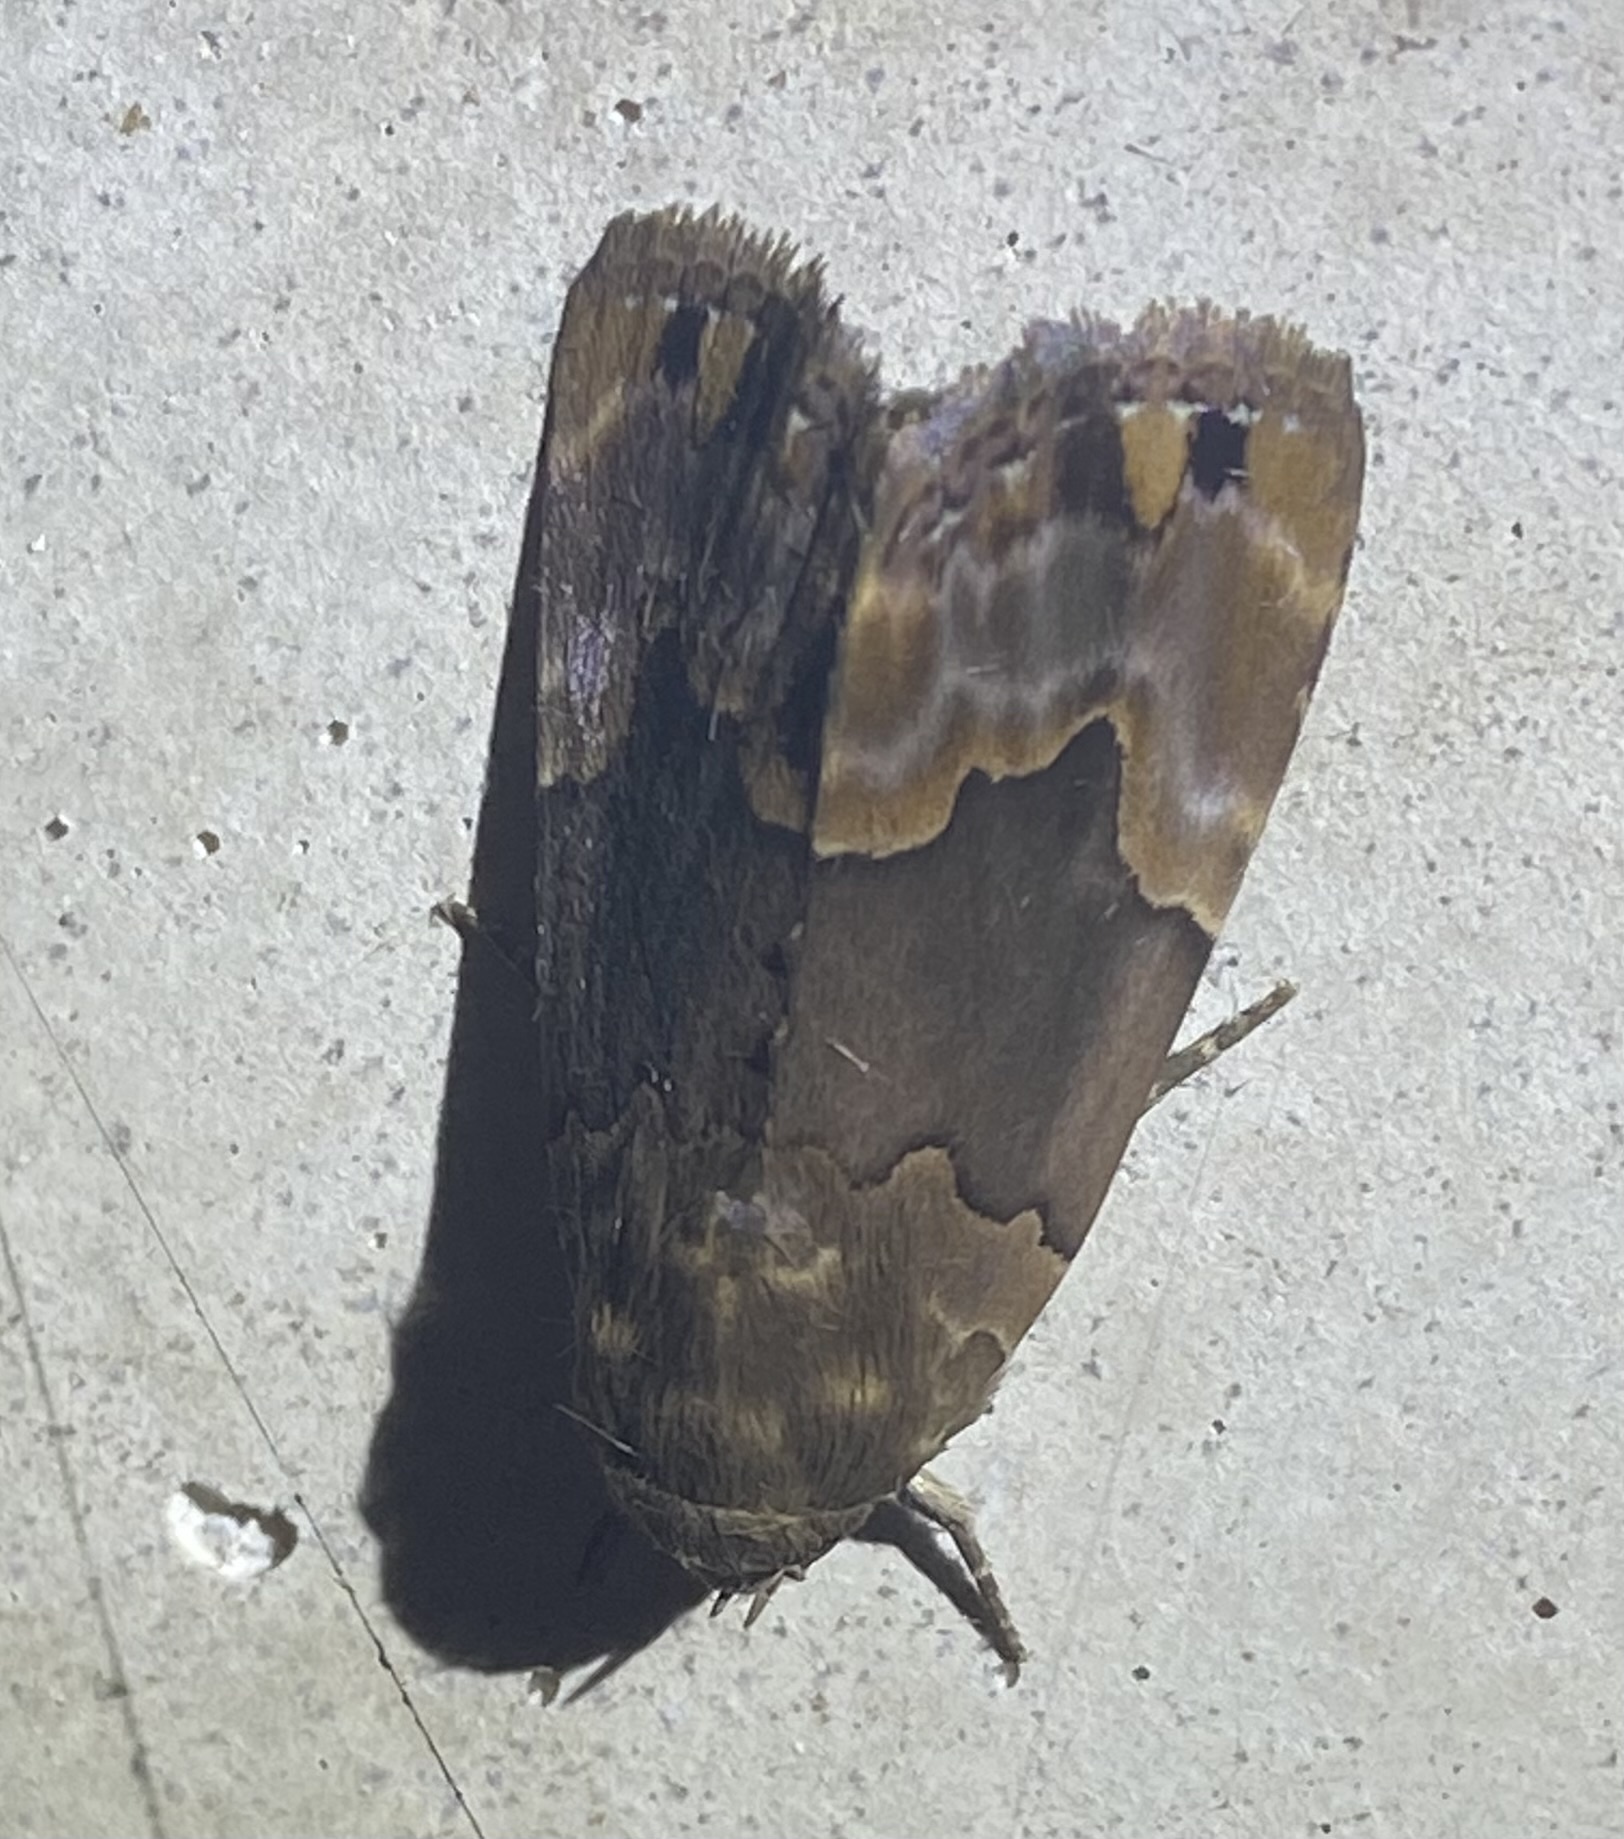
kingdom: Animalia
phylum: Arthropoda
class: Insecta
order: Lepidoptera
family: Erebidae
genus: Dinumma
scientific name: Dinumma deponens
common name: Purplish moth
